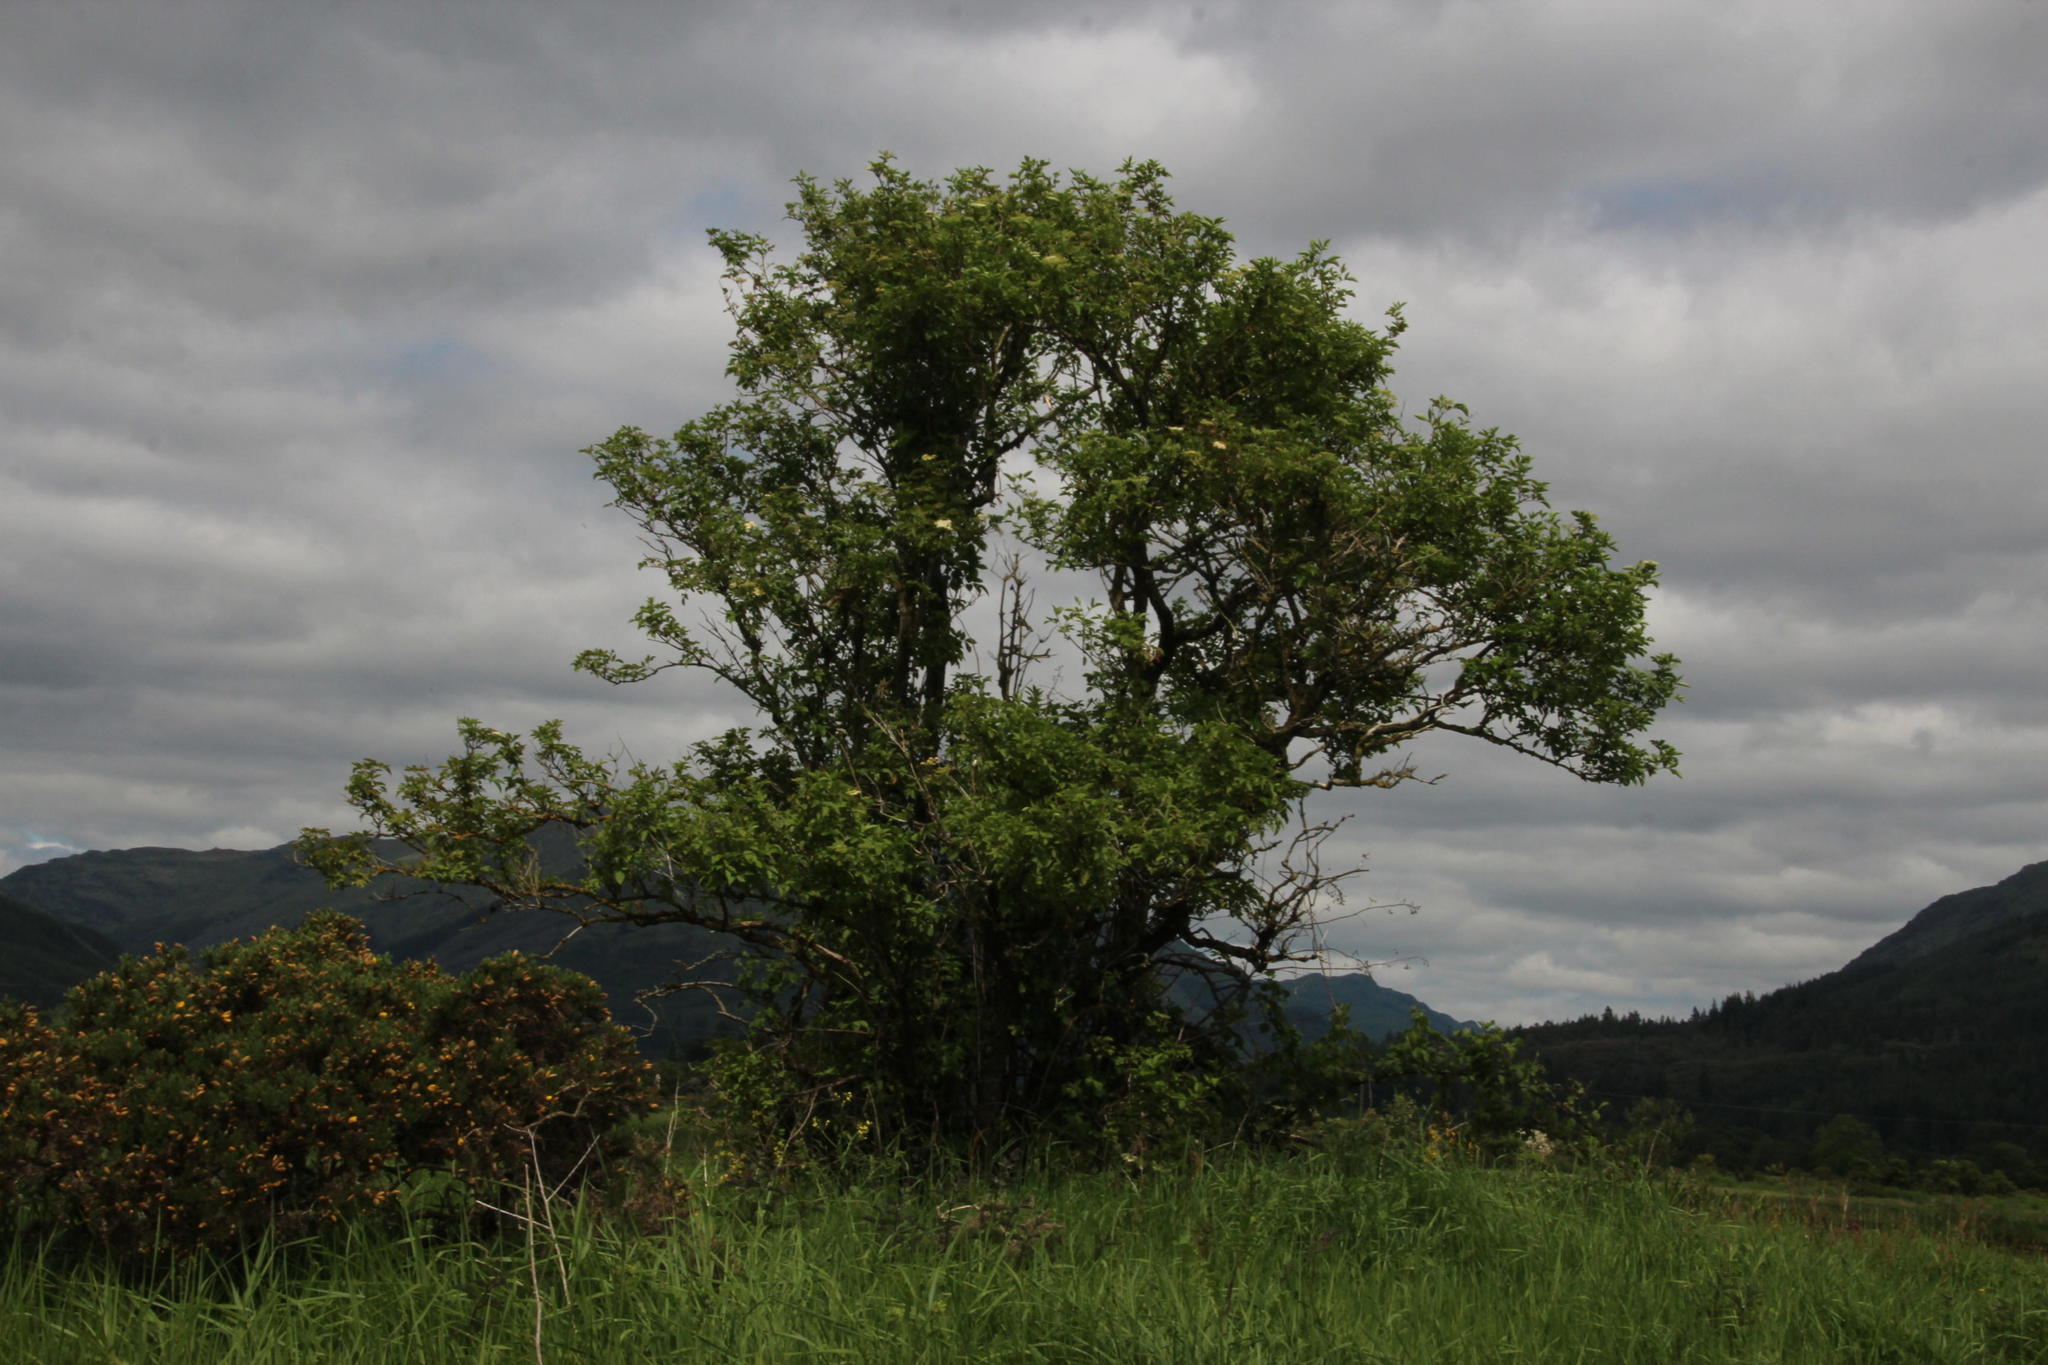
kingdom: Plantae
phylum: Tracheophyta
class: Magnoliopsida
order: Dipsacales
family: Viburnaceae
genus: Sambucus
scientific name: Sambucus nigra
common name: Elder
